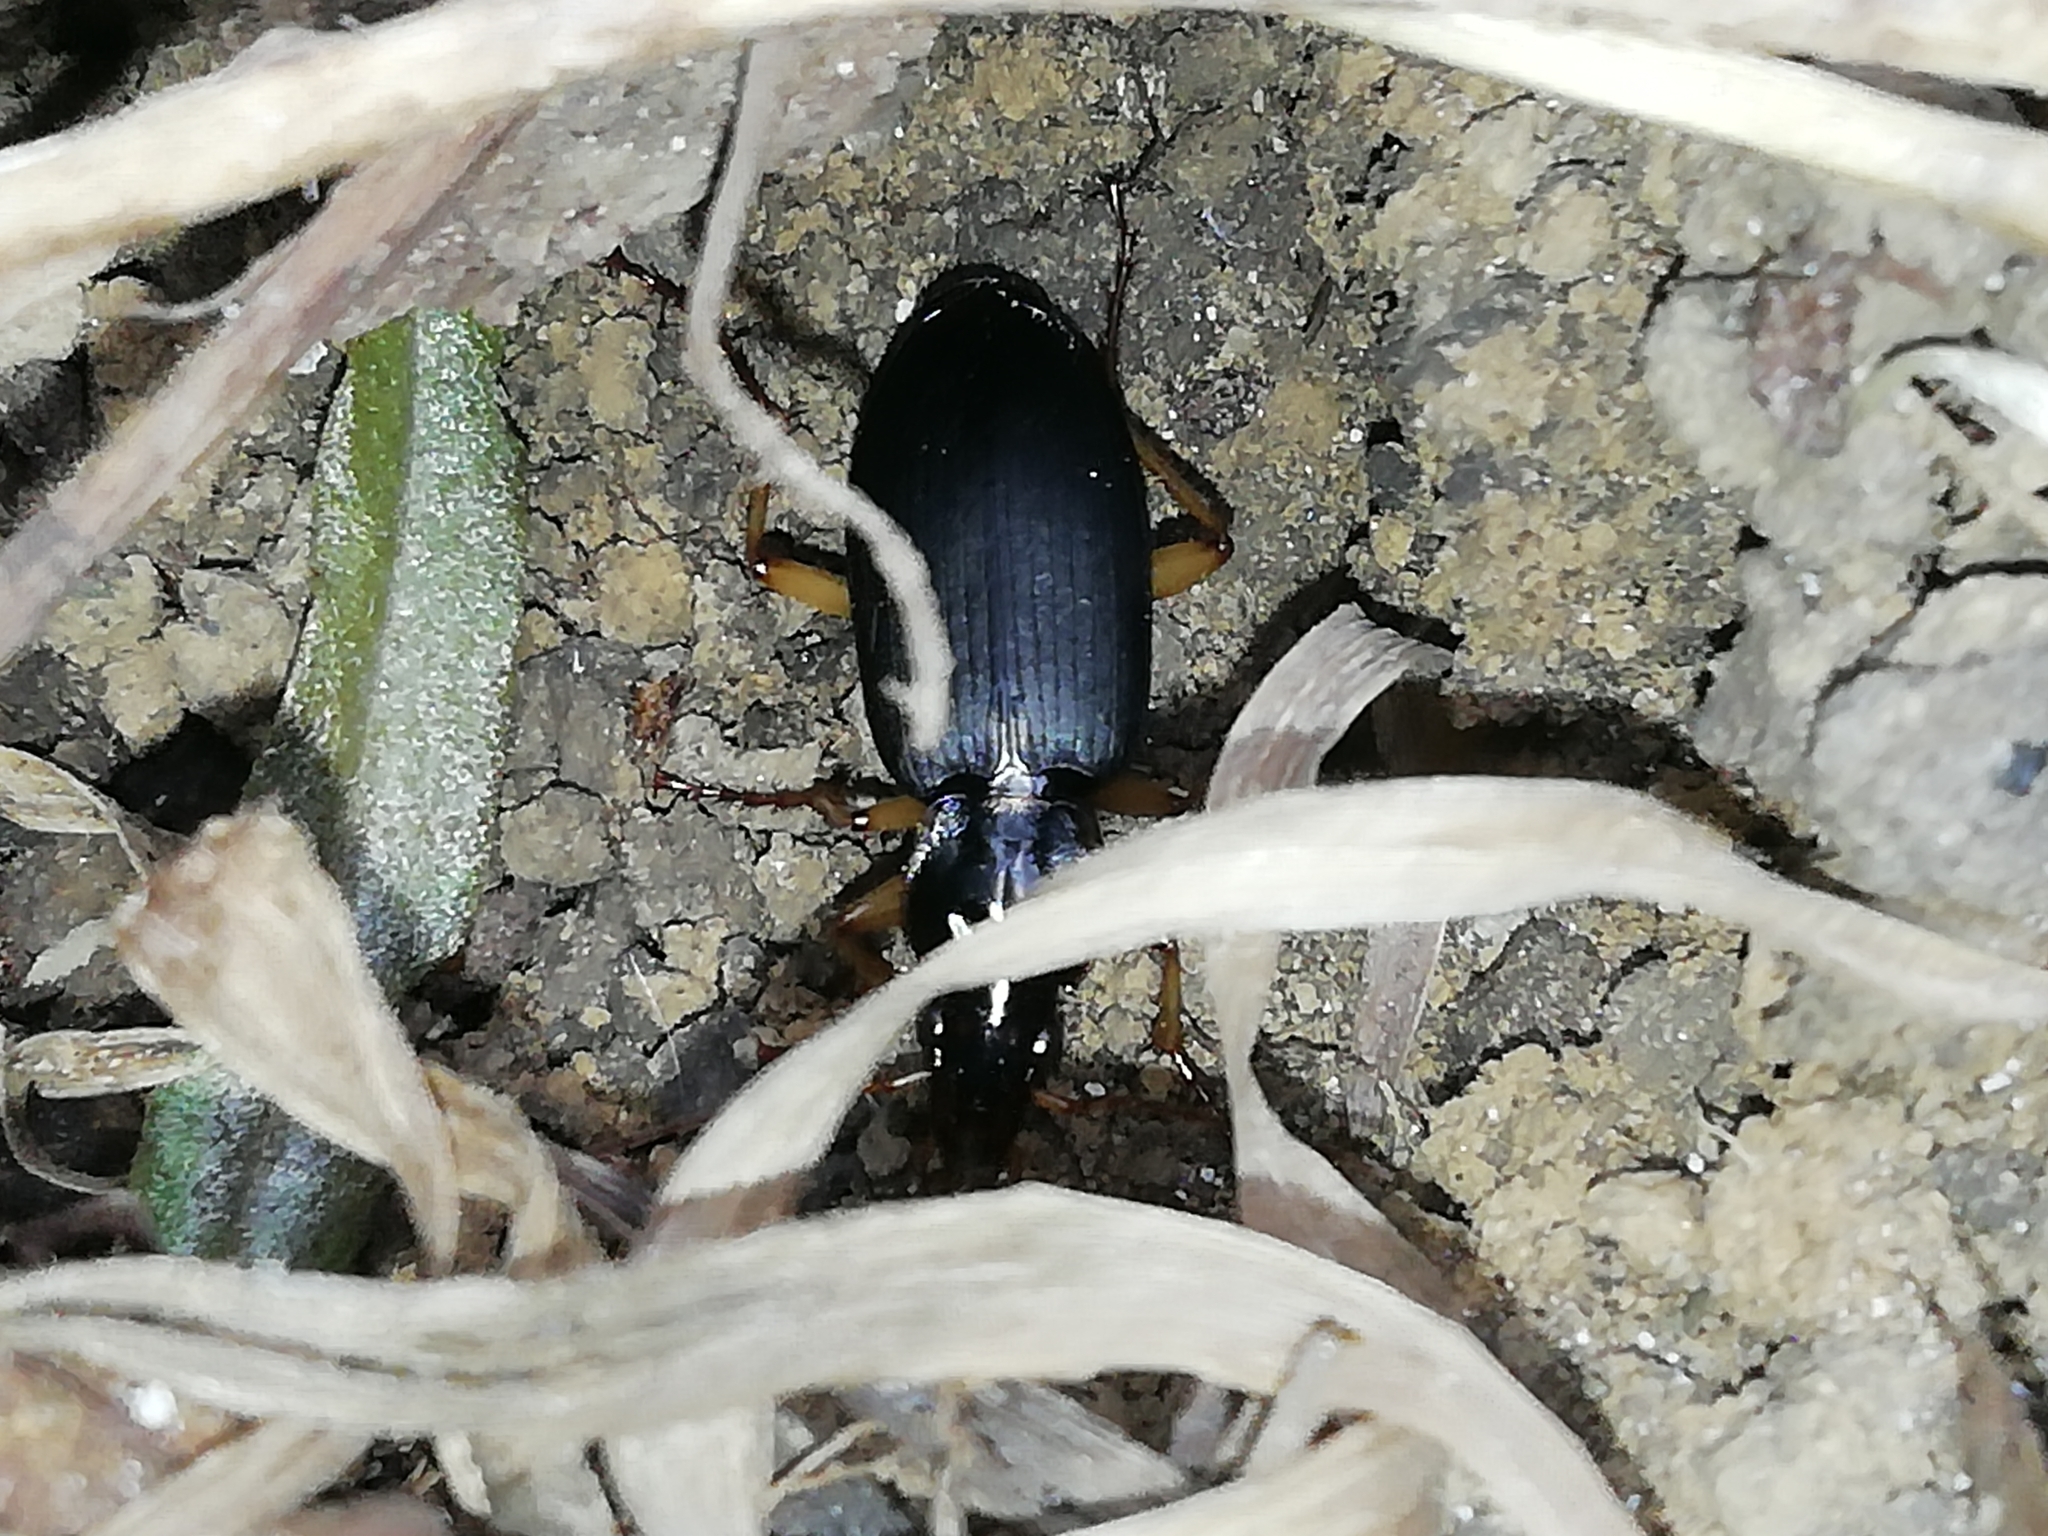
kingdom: Animalia
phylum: Arthropoda
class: Insecta
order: Coleoptera
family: Carabidae
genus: Dolichus
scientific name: Dolichus halensis
